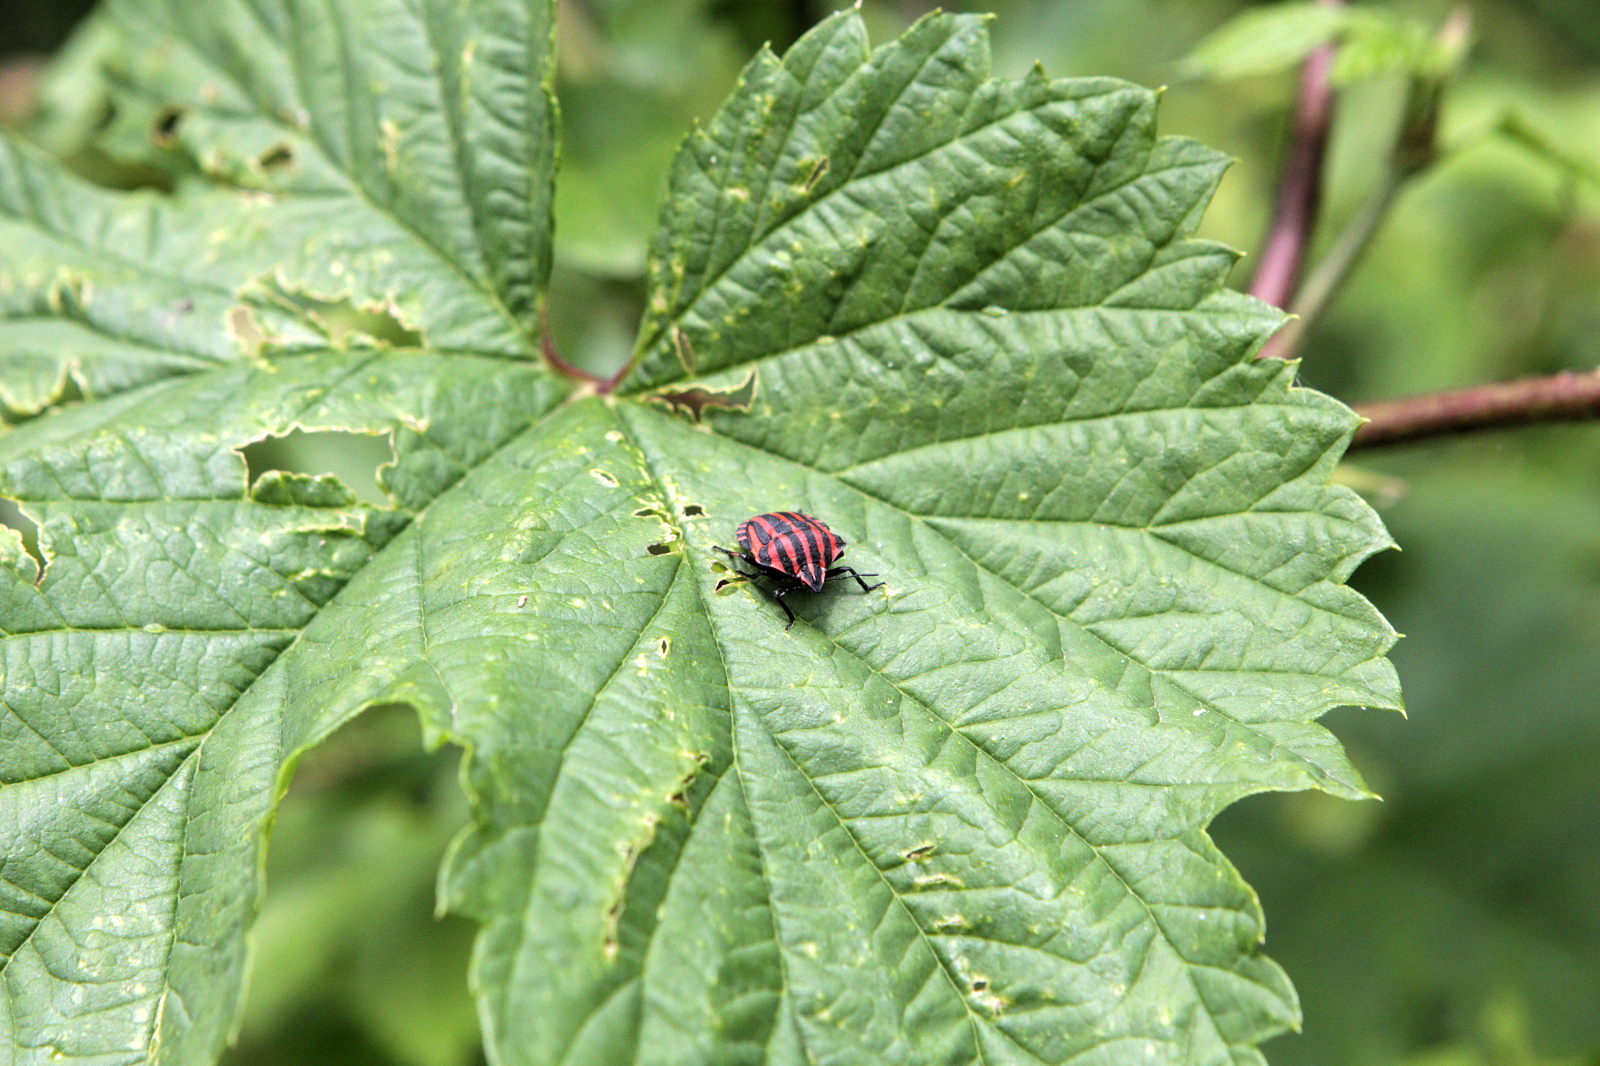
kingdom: Animalia
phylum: Arthropoda
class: Insecta
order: Hemiptera
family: Pentatomidae
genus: Graphosoma
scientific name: Graphosoma italicum
